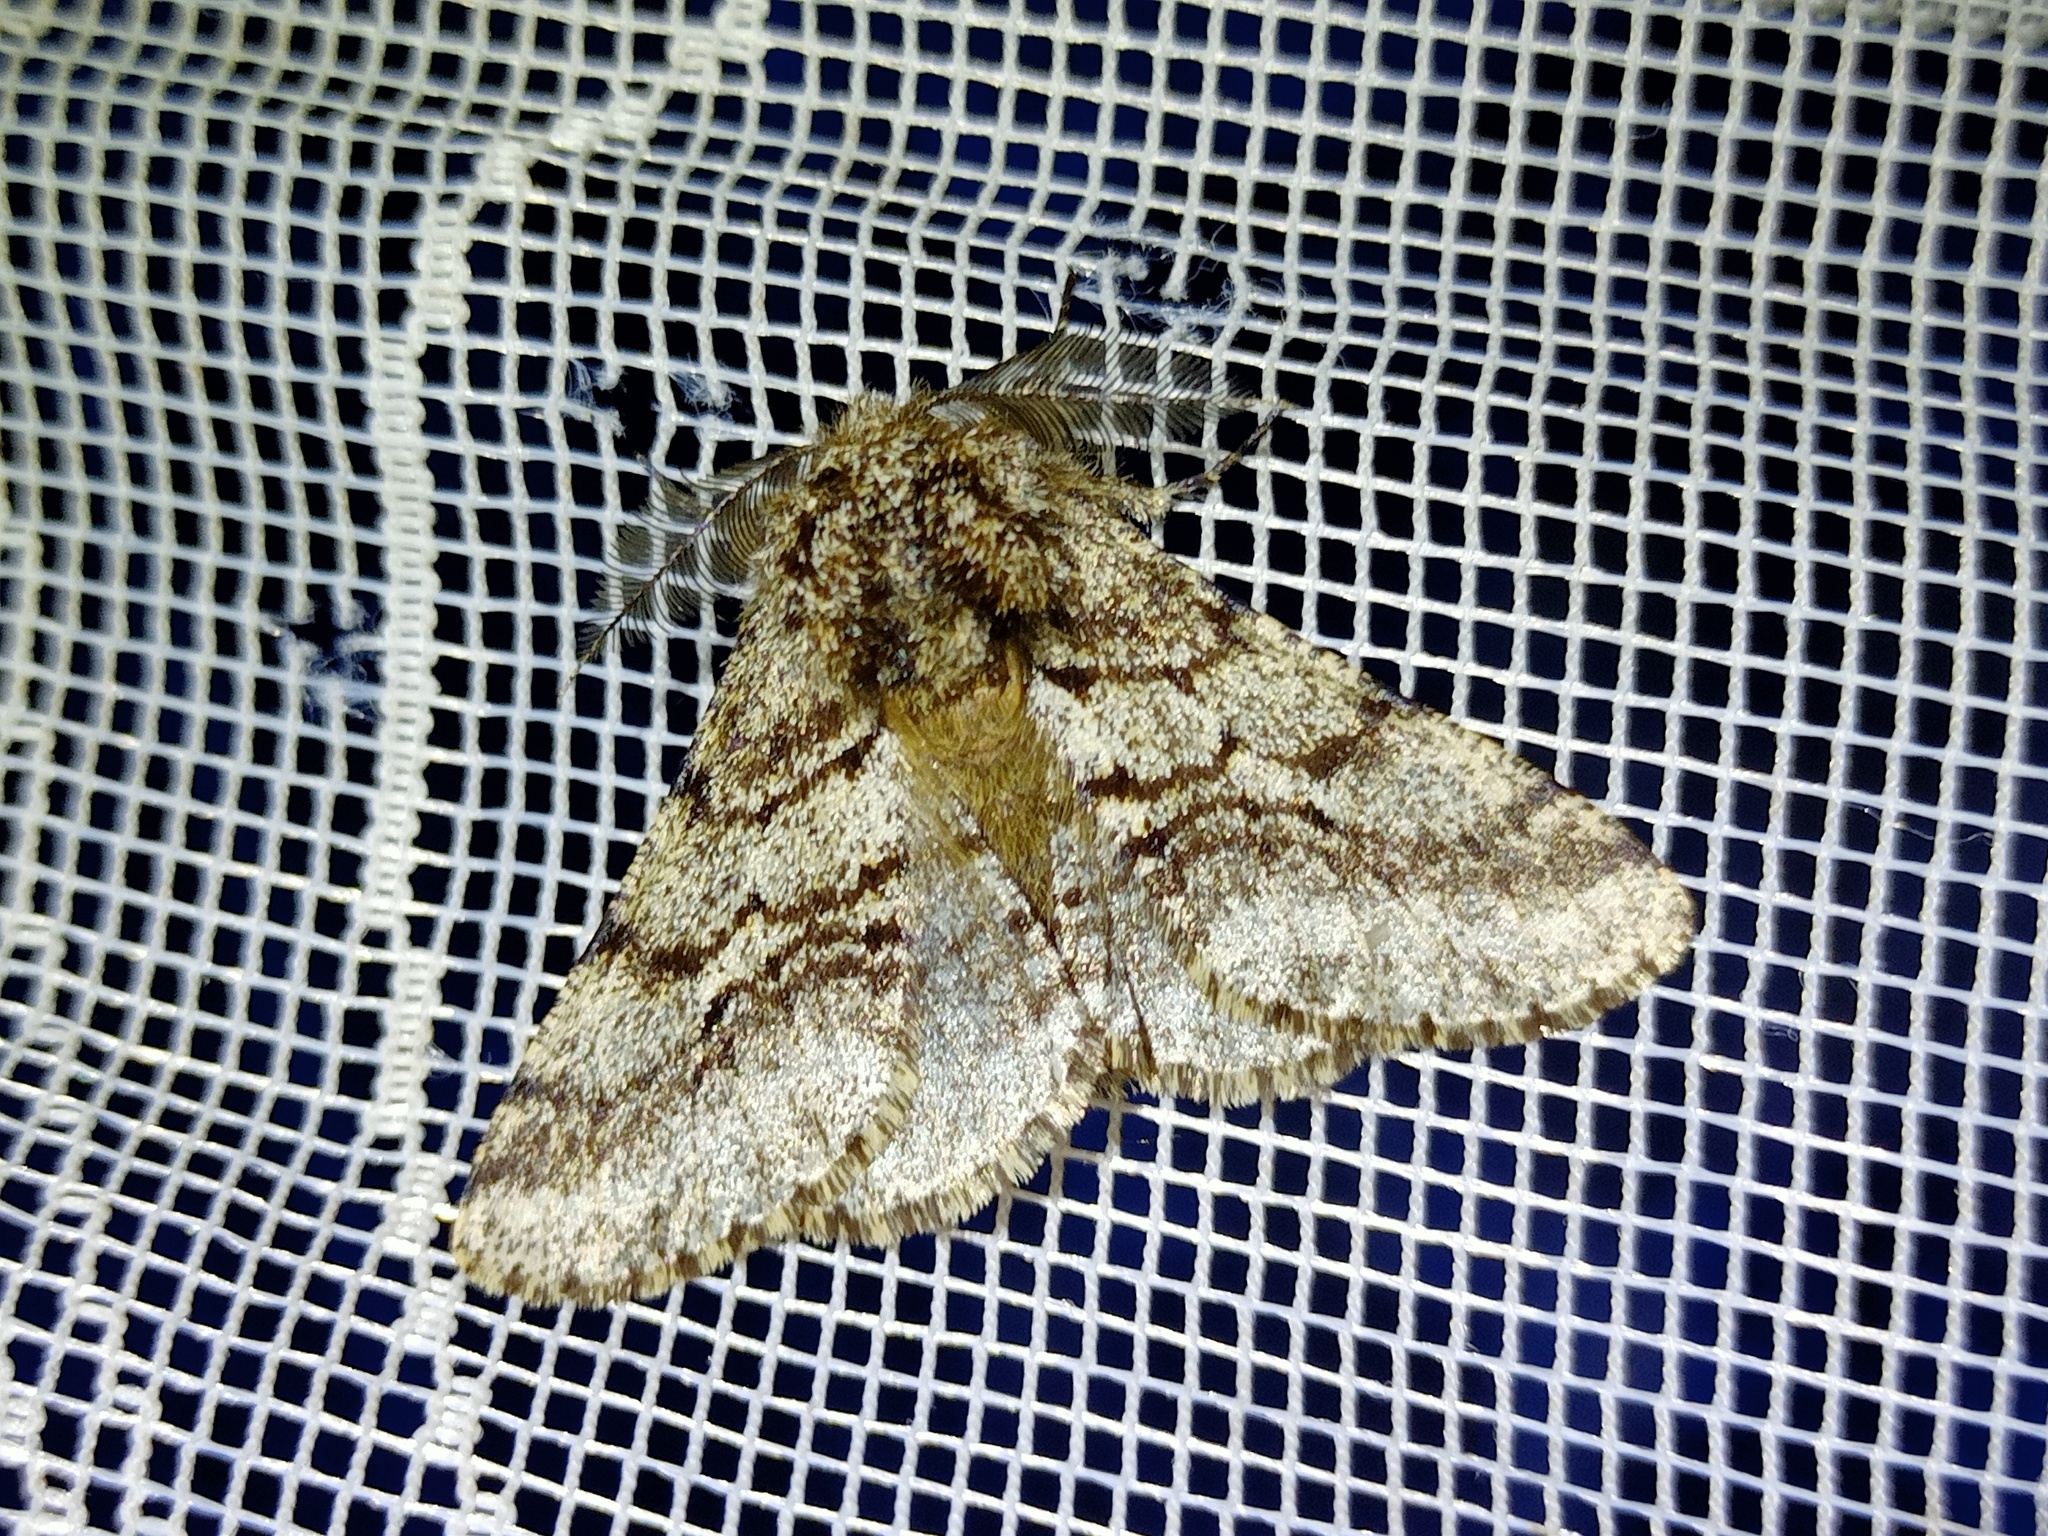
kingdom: Animalia
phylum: Arthropoda
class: Insecta
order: Lepidoptera
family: Geometridae
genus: Lycia
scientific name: Lycia hirtaria
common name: Brindled beauty
